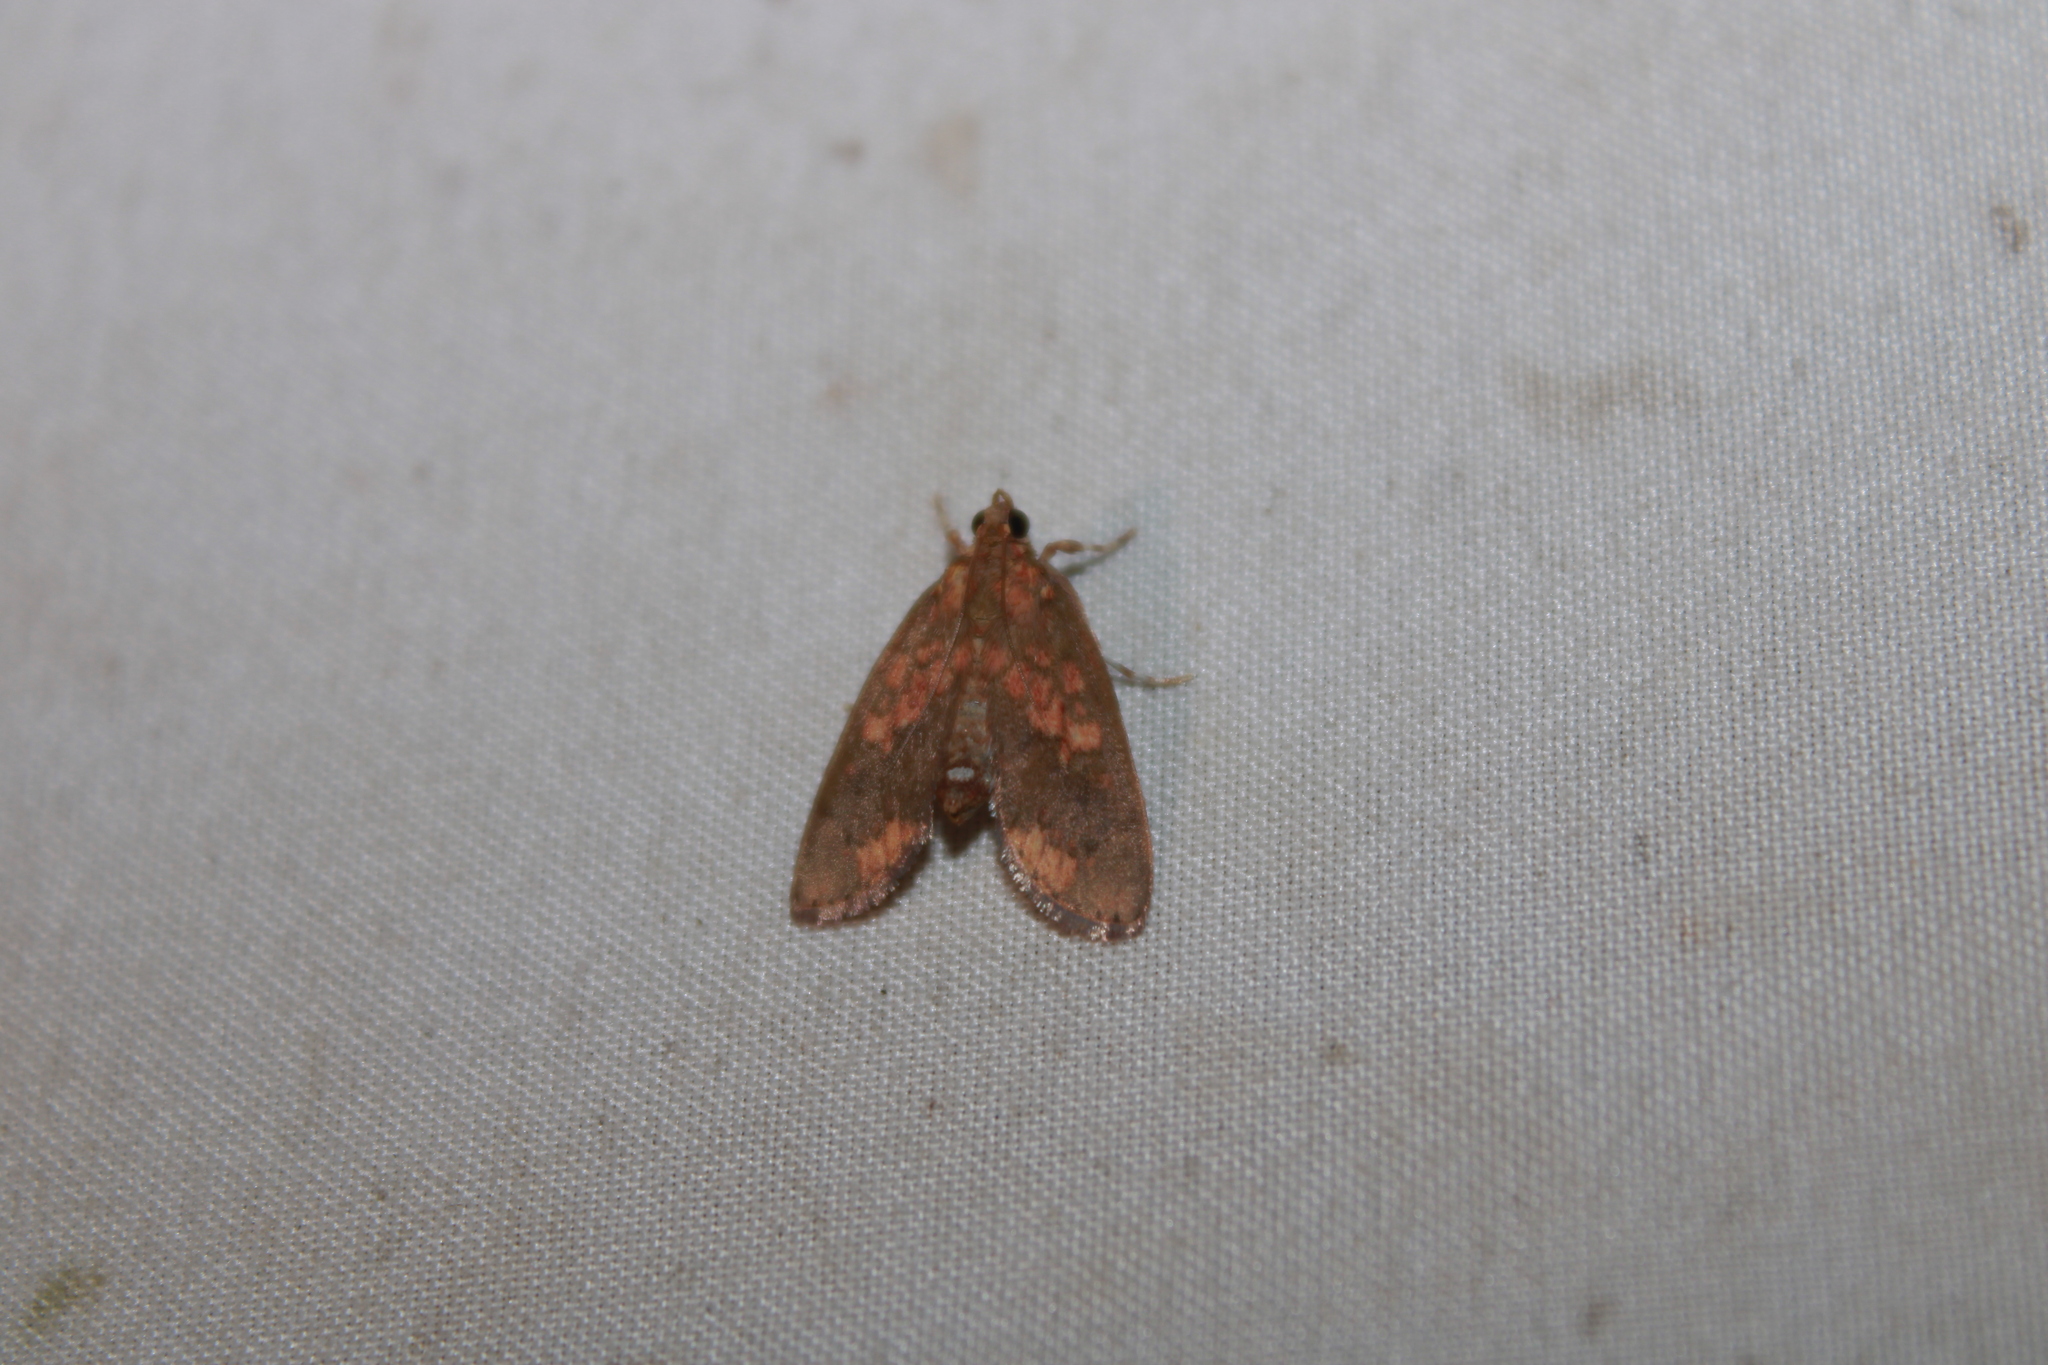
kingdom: Animalia
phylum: Arthropoda
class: Insecta
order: Lepidoptera
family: Crambidae
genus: Mimophobetron
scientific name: Mimophobetron pyropsalis
